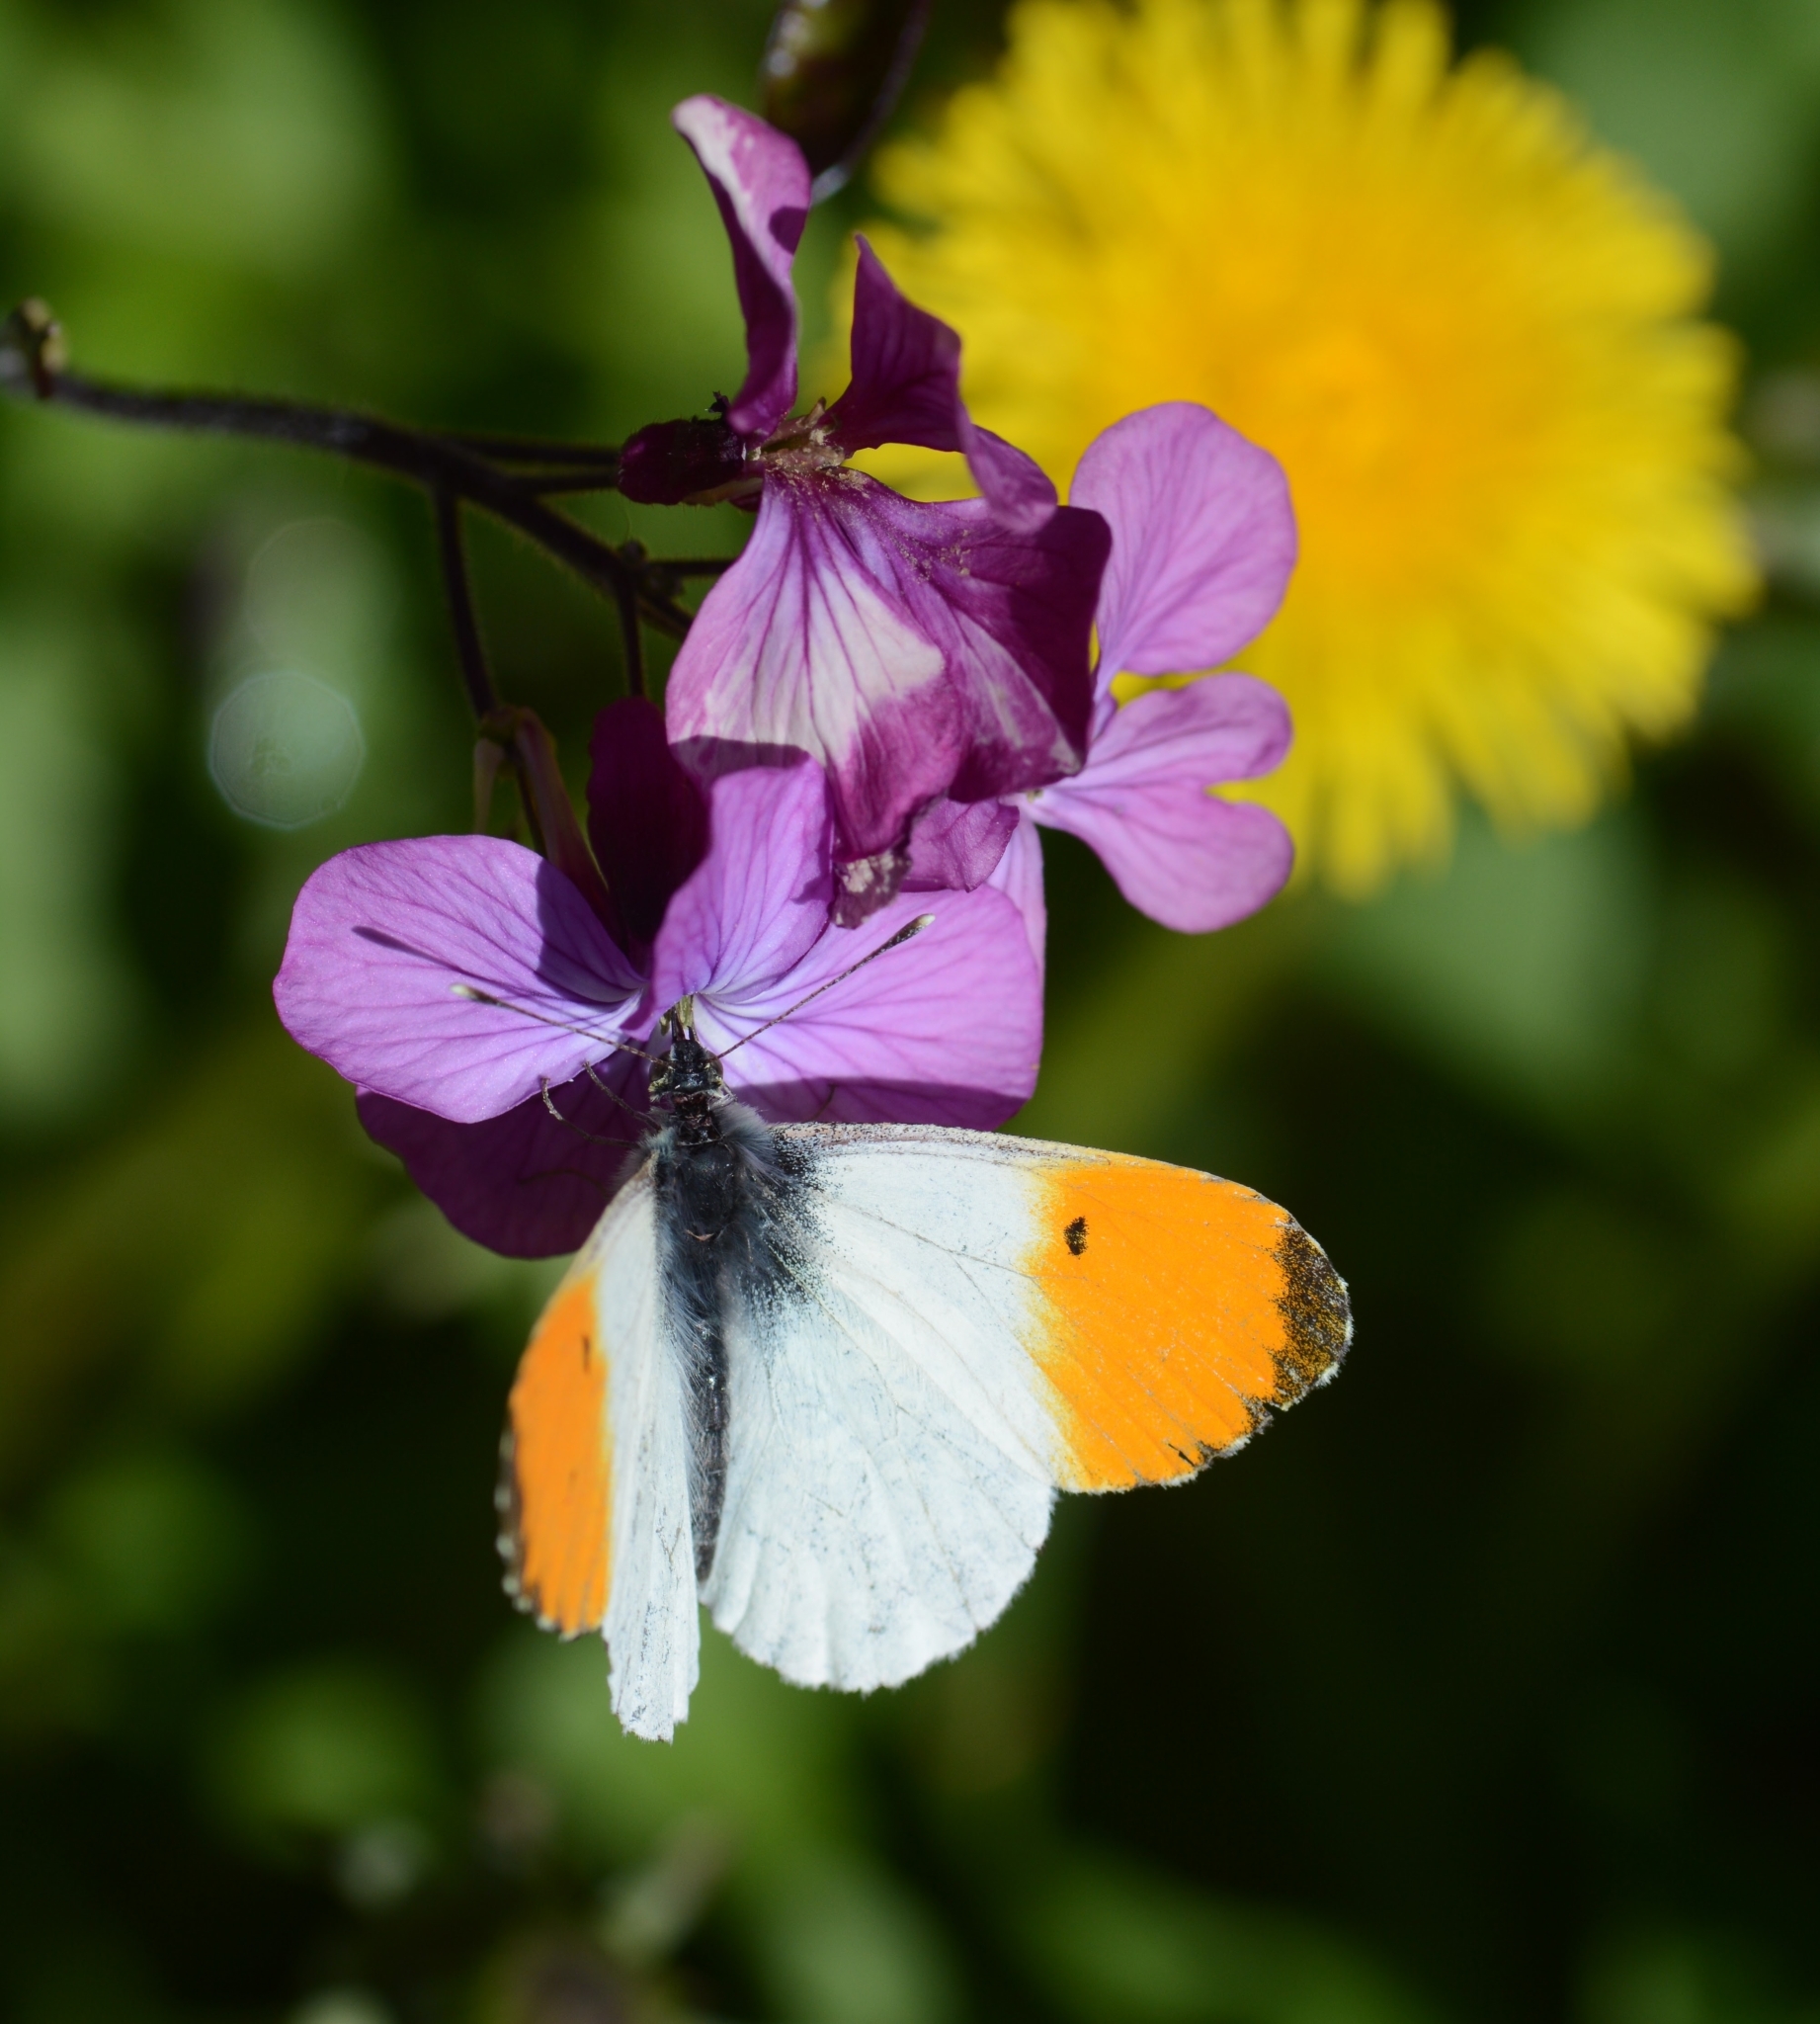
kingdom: Animalia
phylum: Arthropoda
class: Insecta
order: Lepidoptera
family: Pieridae
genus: Anthocharis
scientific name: Anthocharis cardamines
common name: Orange-tip
